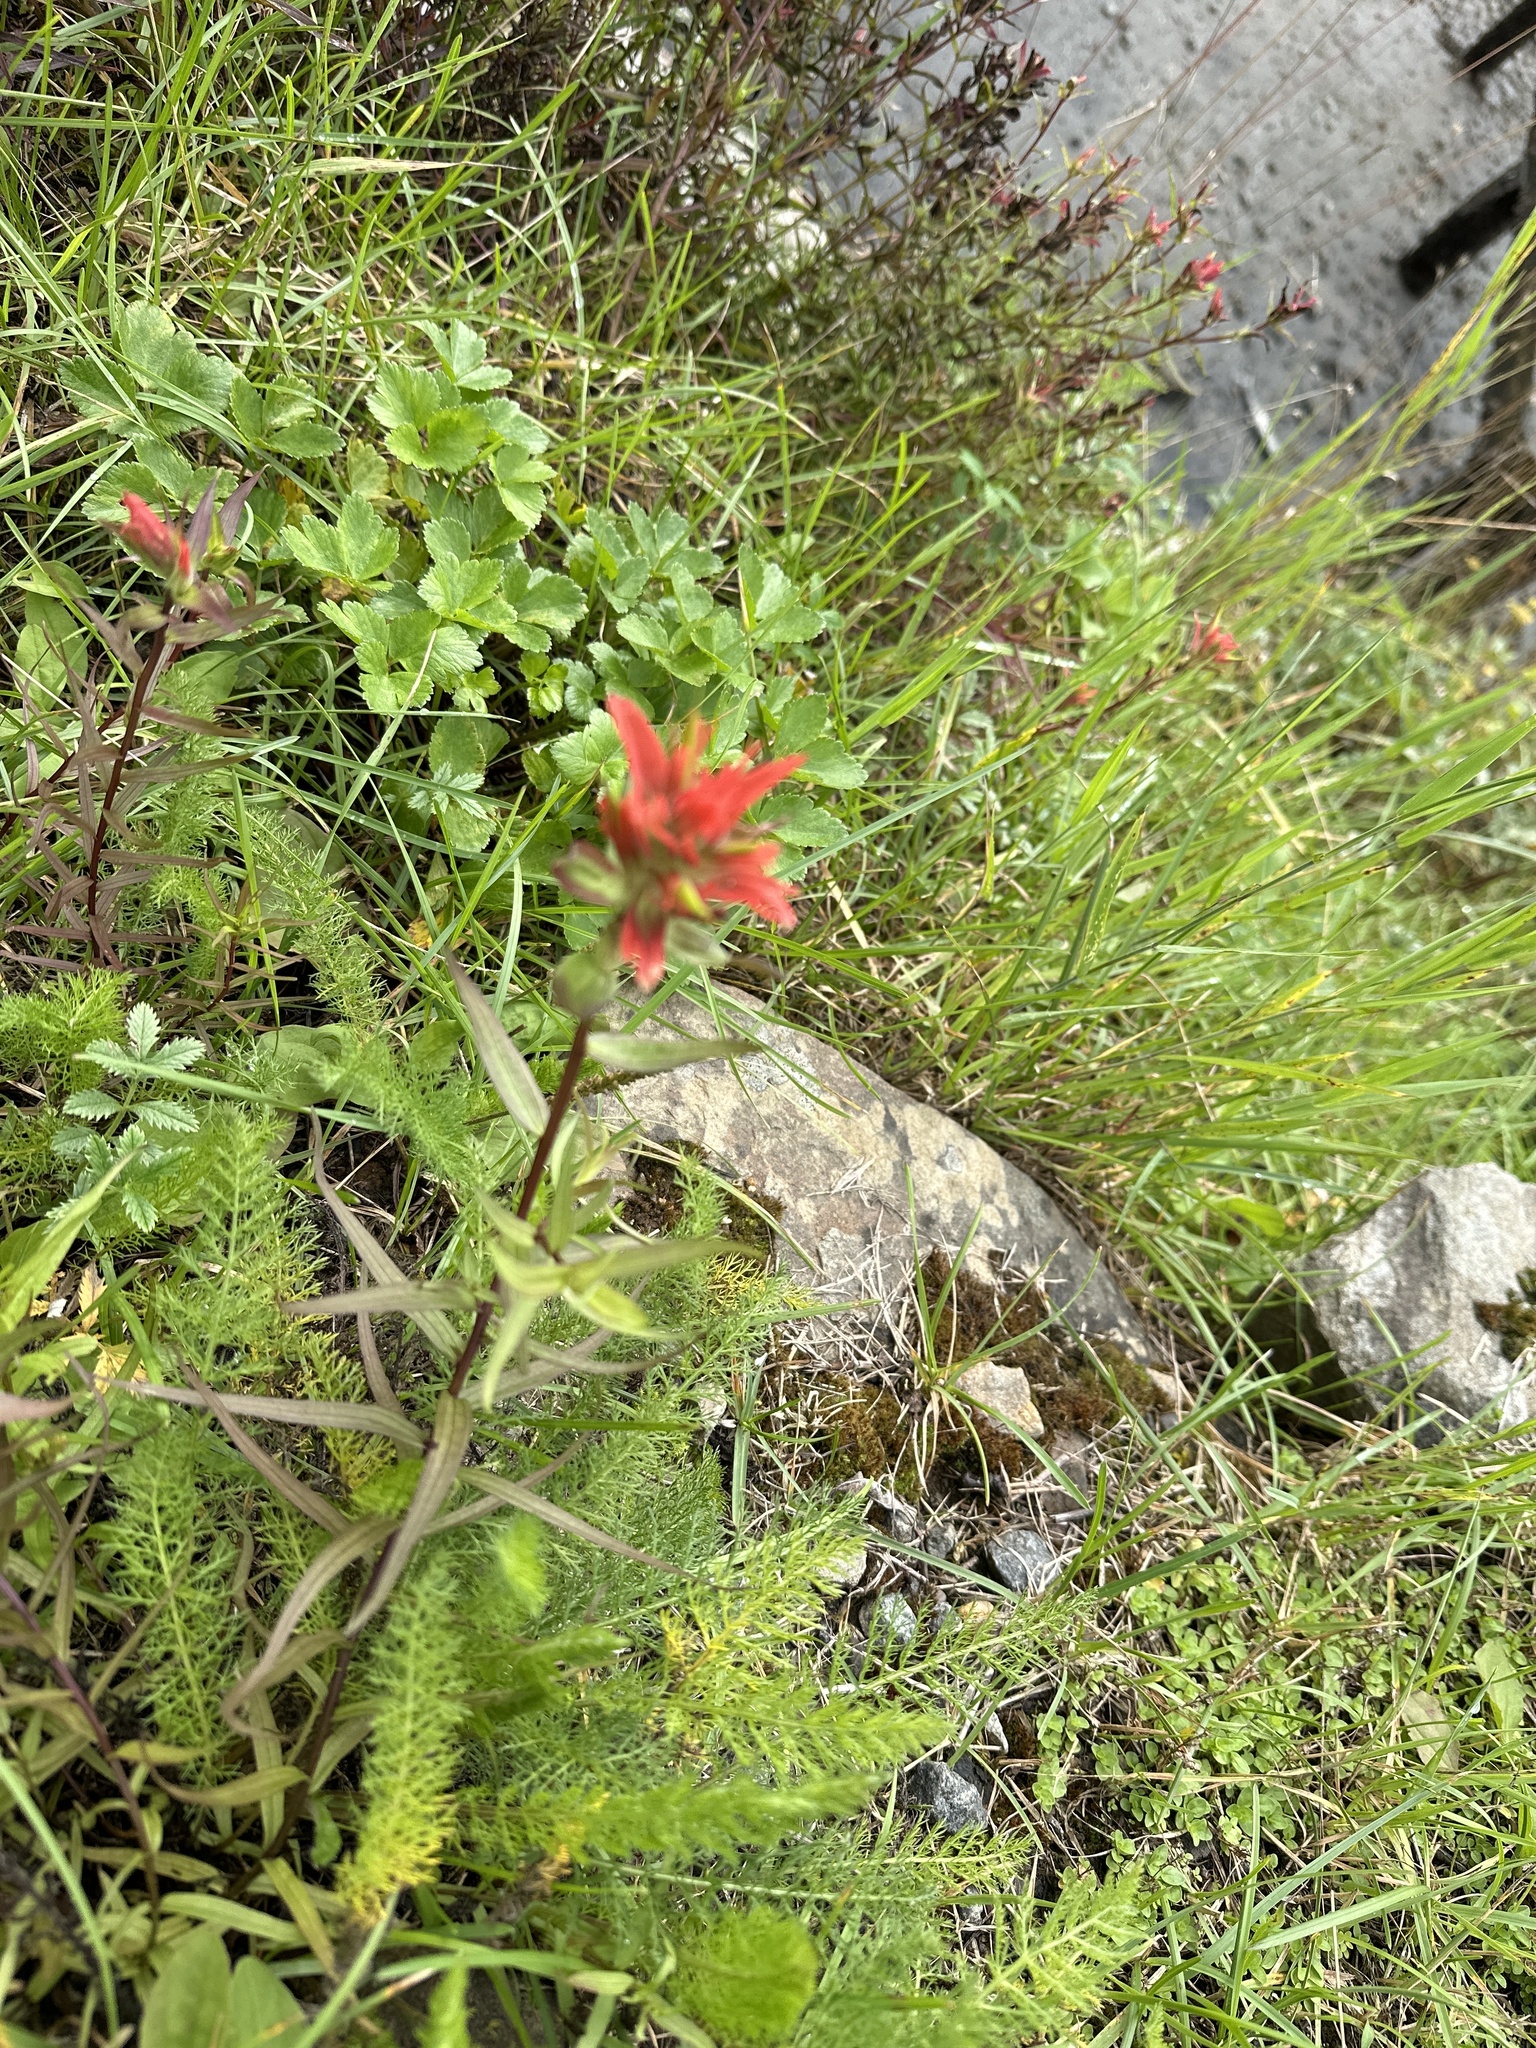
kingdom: Plantae
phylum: Tracheophyta
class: Magnoliopsida
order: Lamiales
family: Orobanchaceae
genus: Castilleja
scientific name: Castilleja miniata
